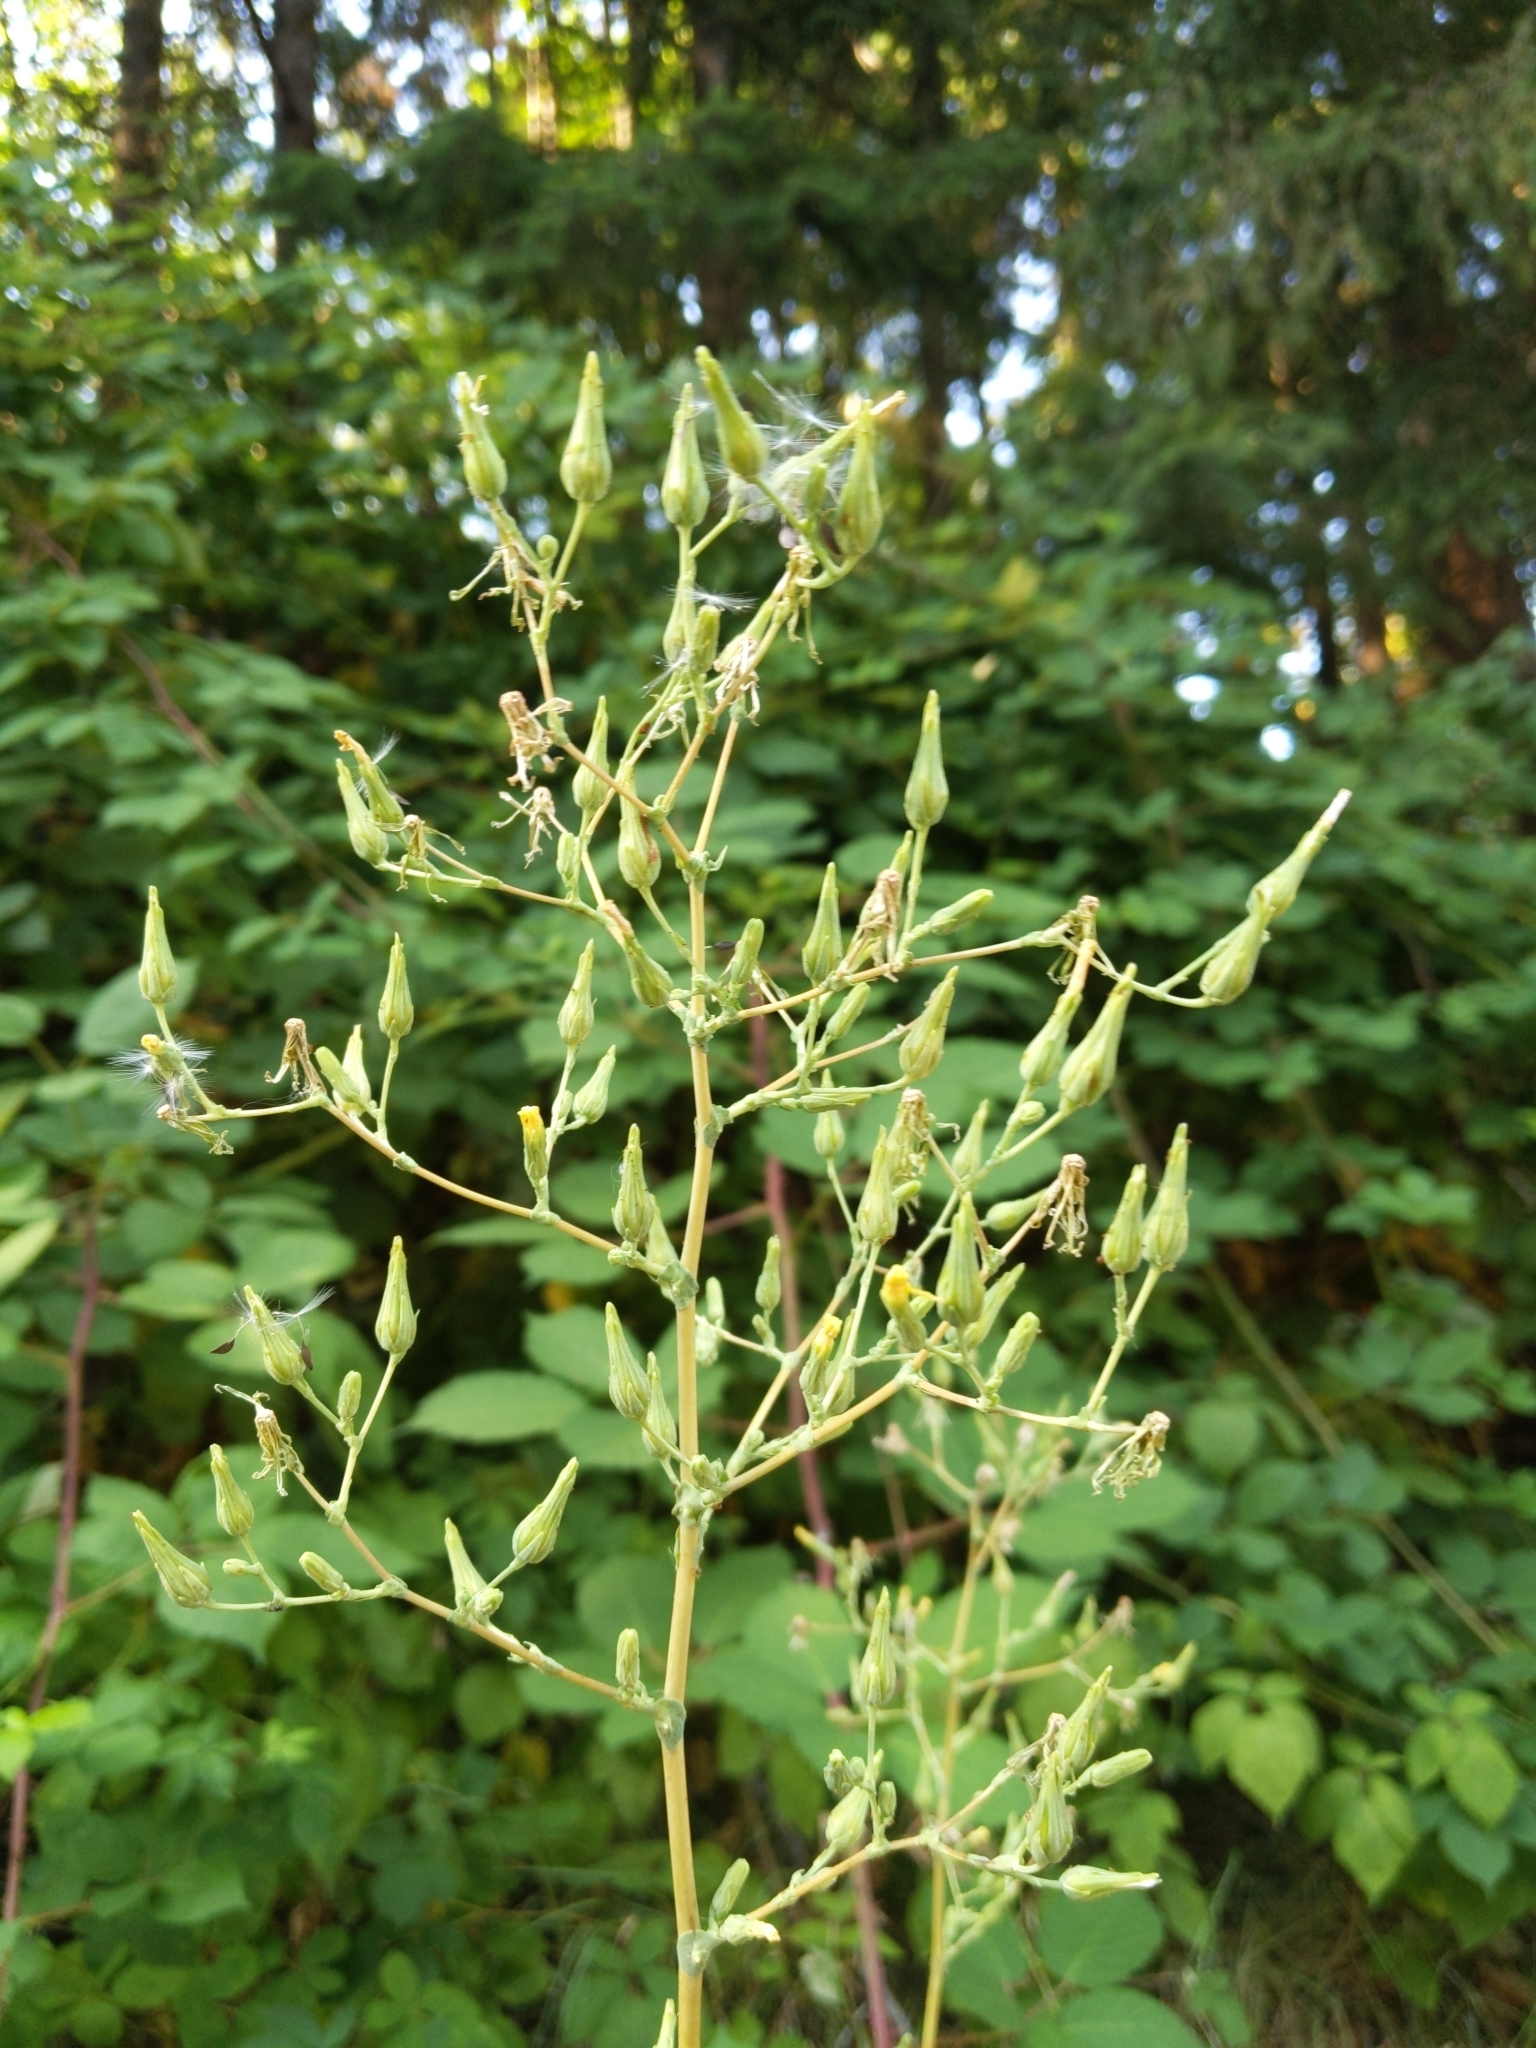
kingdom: Plantae
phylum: Tracheophyta
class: Magnoliopsida
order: Asterales
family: Asteraceae
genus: Lactuca
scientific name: Lactuca serriola
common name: Prickly lettuce
